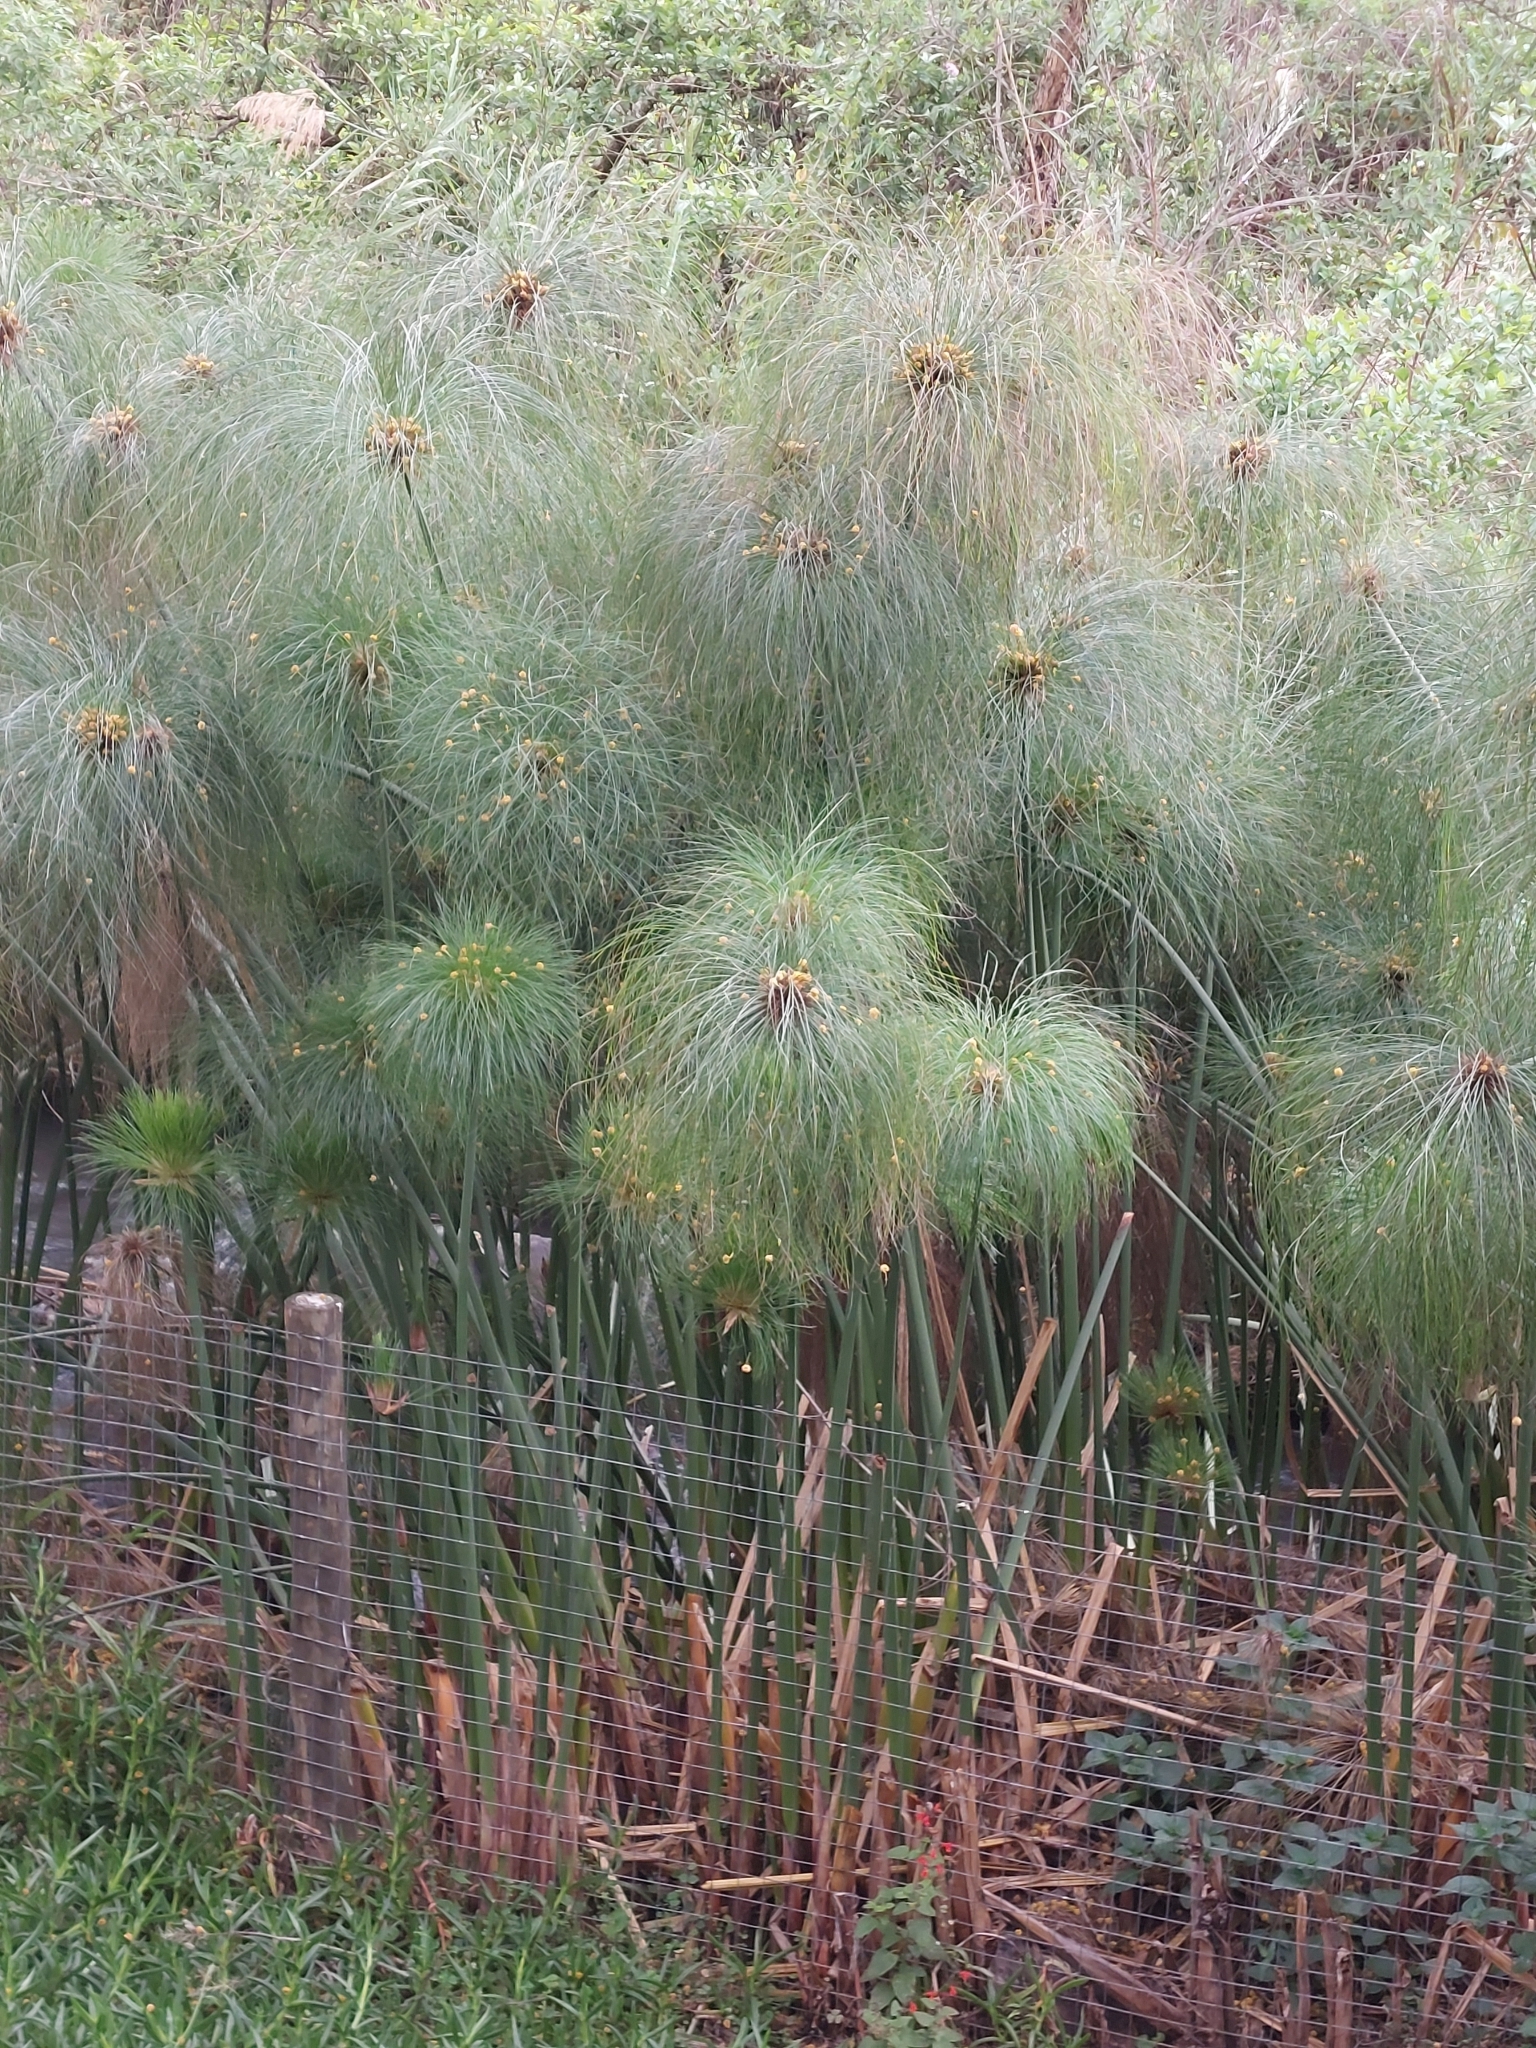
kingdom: Plantae
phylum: Tracheophyta
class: Liliopsida
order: Poales
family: Cyperaceae
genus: Cyperus
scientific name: Cyperus papyrus
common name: Papyrus
